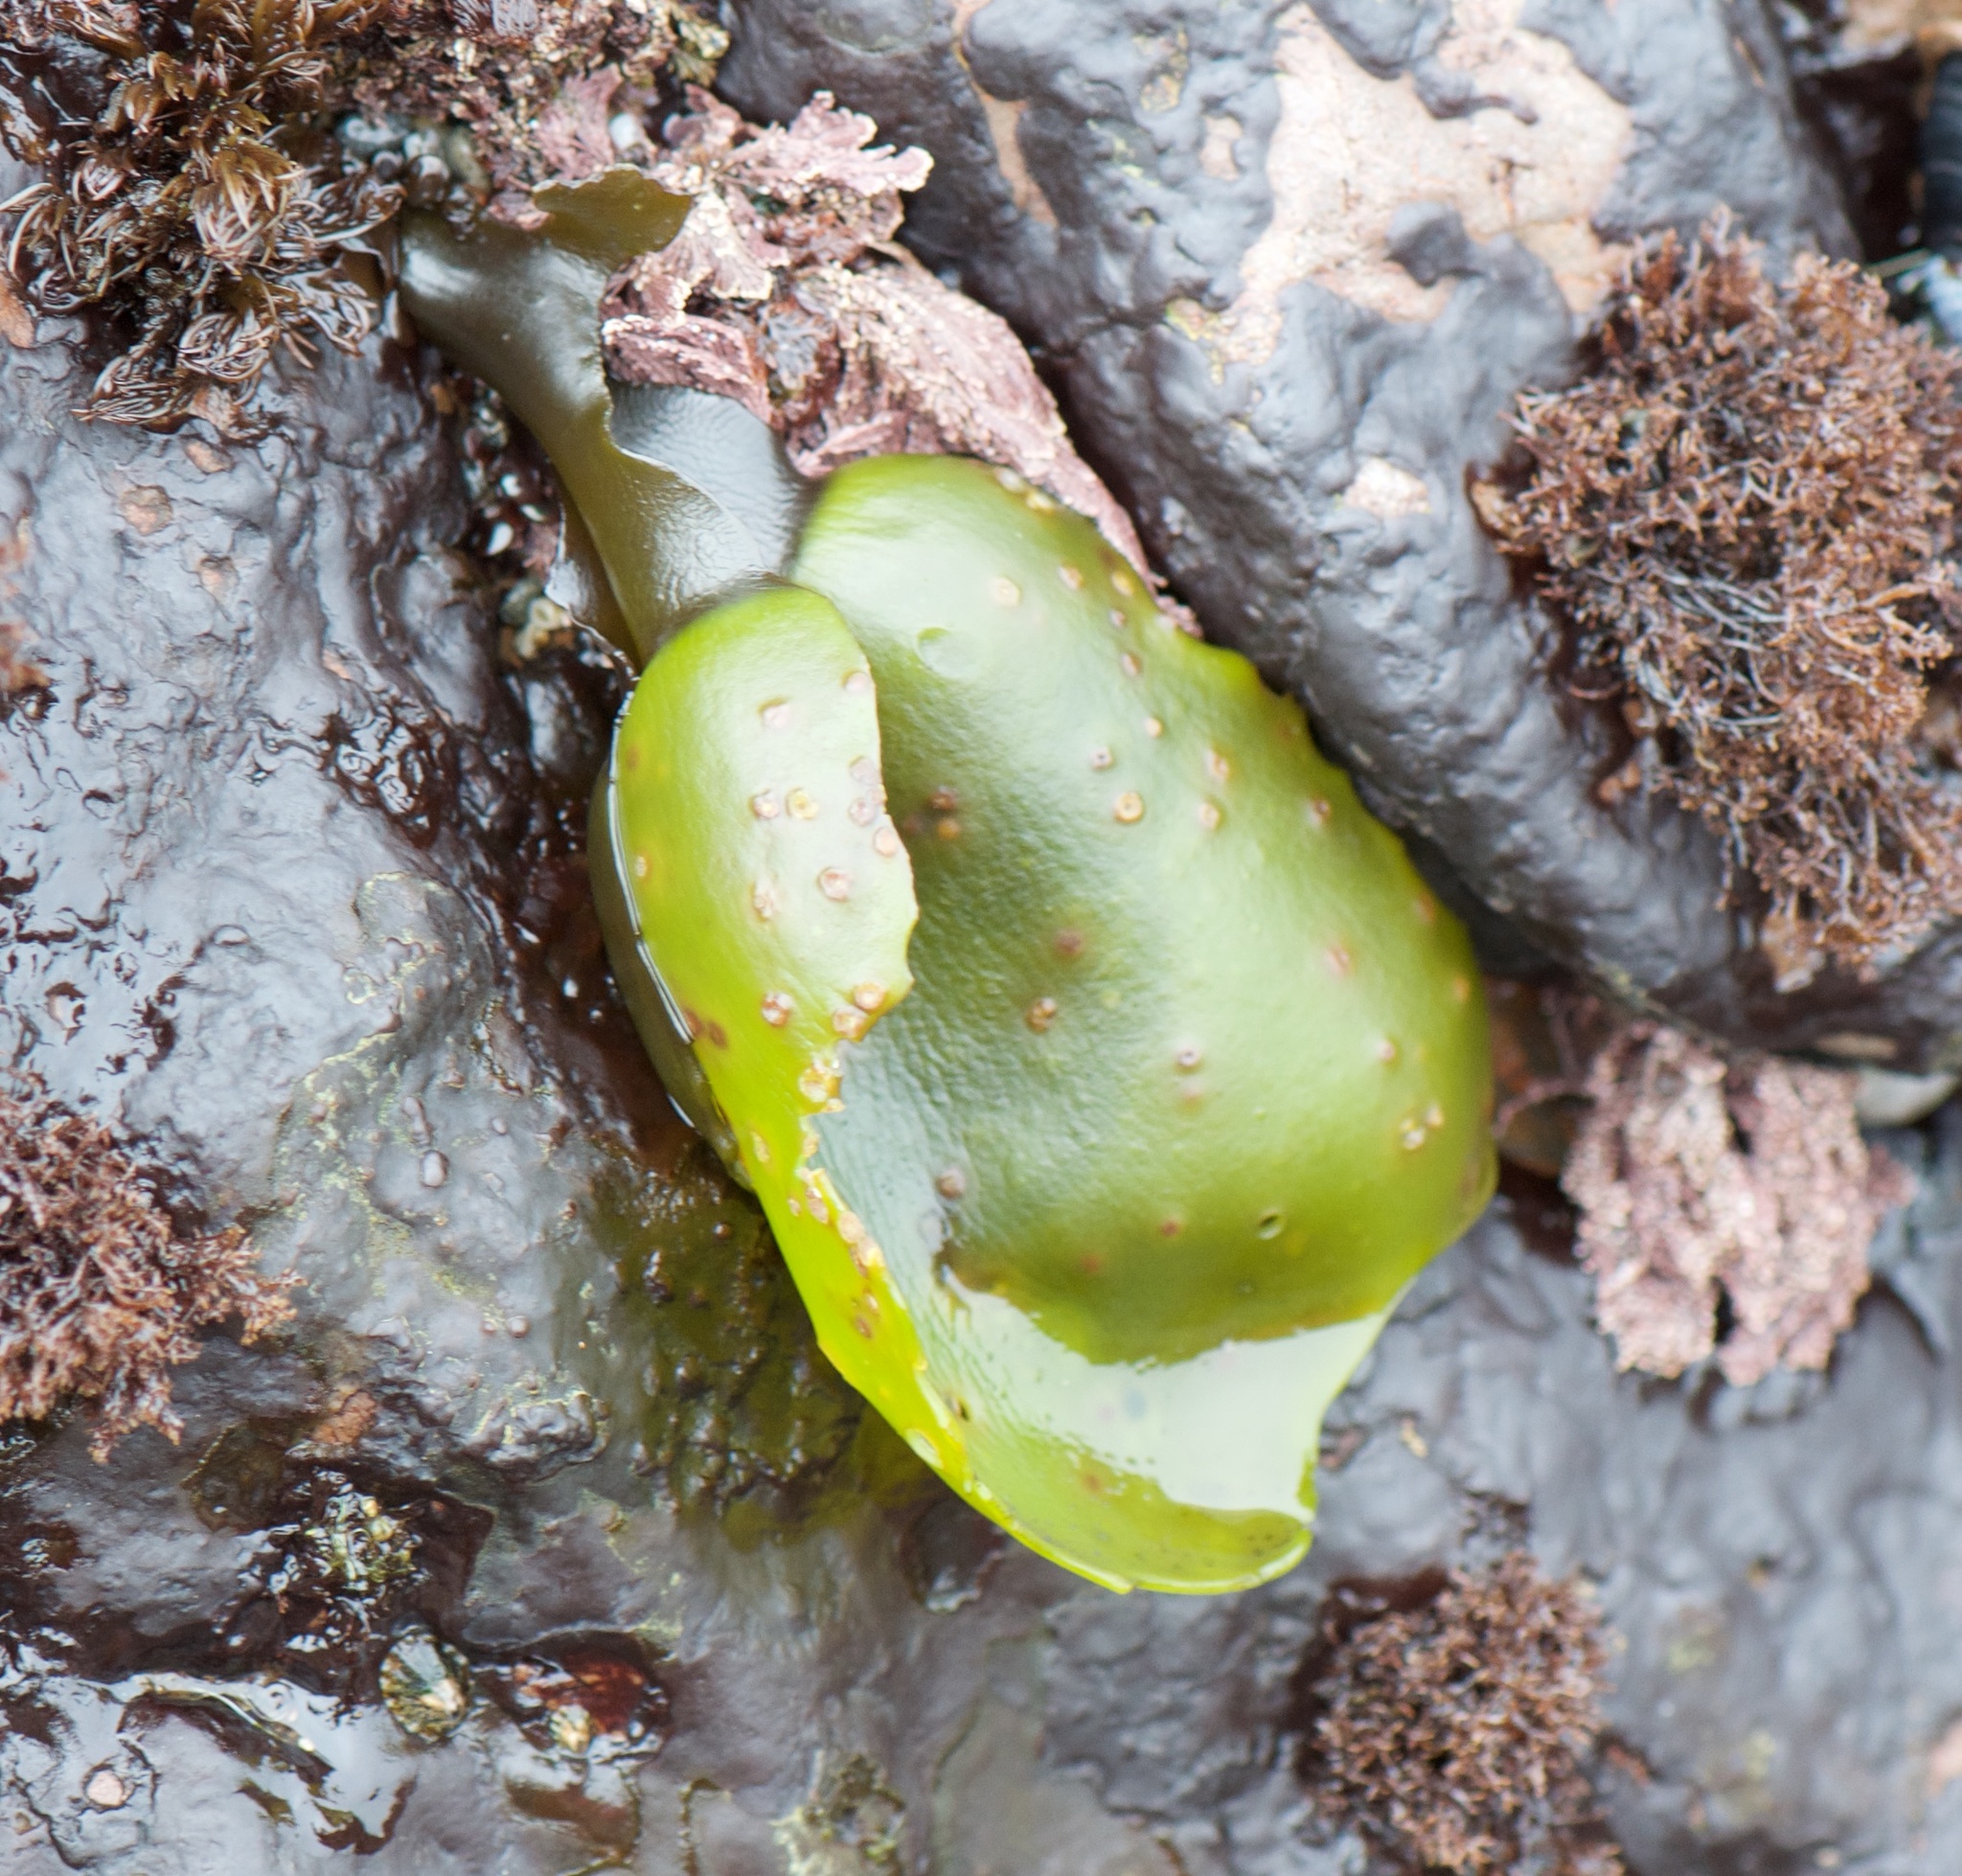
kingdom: Plantae
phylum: Rhodophyta
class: Florideophyceae
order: Gigartinales
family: Gigartinaceae
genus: Mazzaella
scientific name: Mazzaella flaccida
